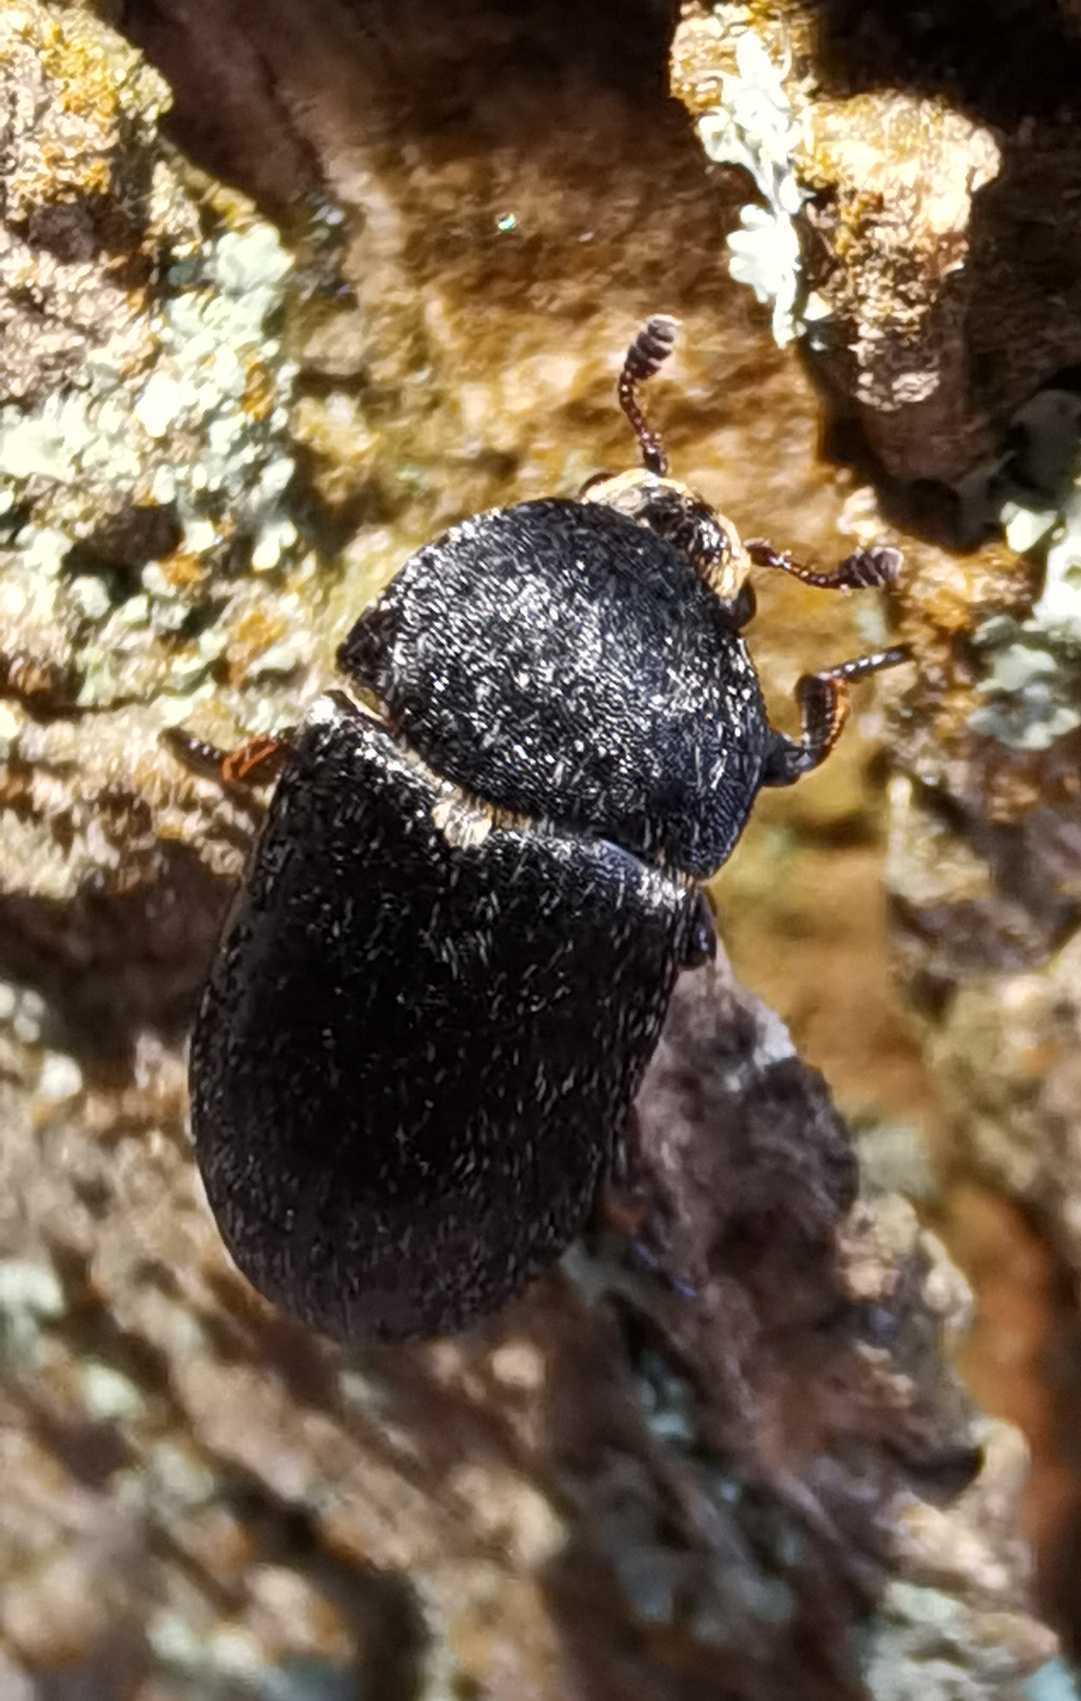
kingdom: Animalia
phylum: Arthropoda
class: Insecta
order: Coleoptera
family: Dermestidae
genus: Dermestes
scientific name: Dermestes laniarius
